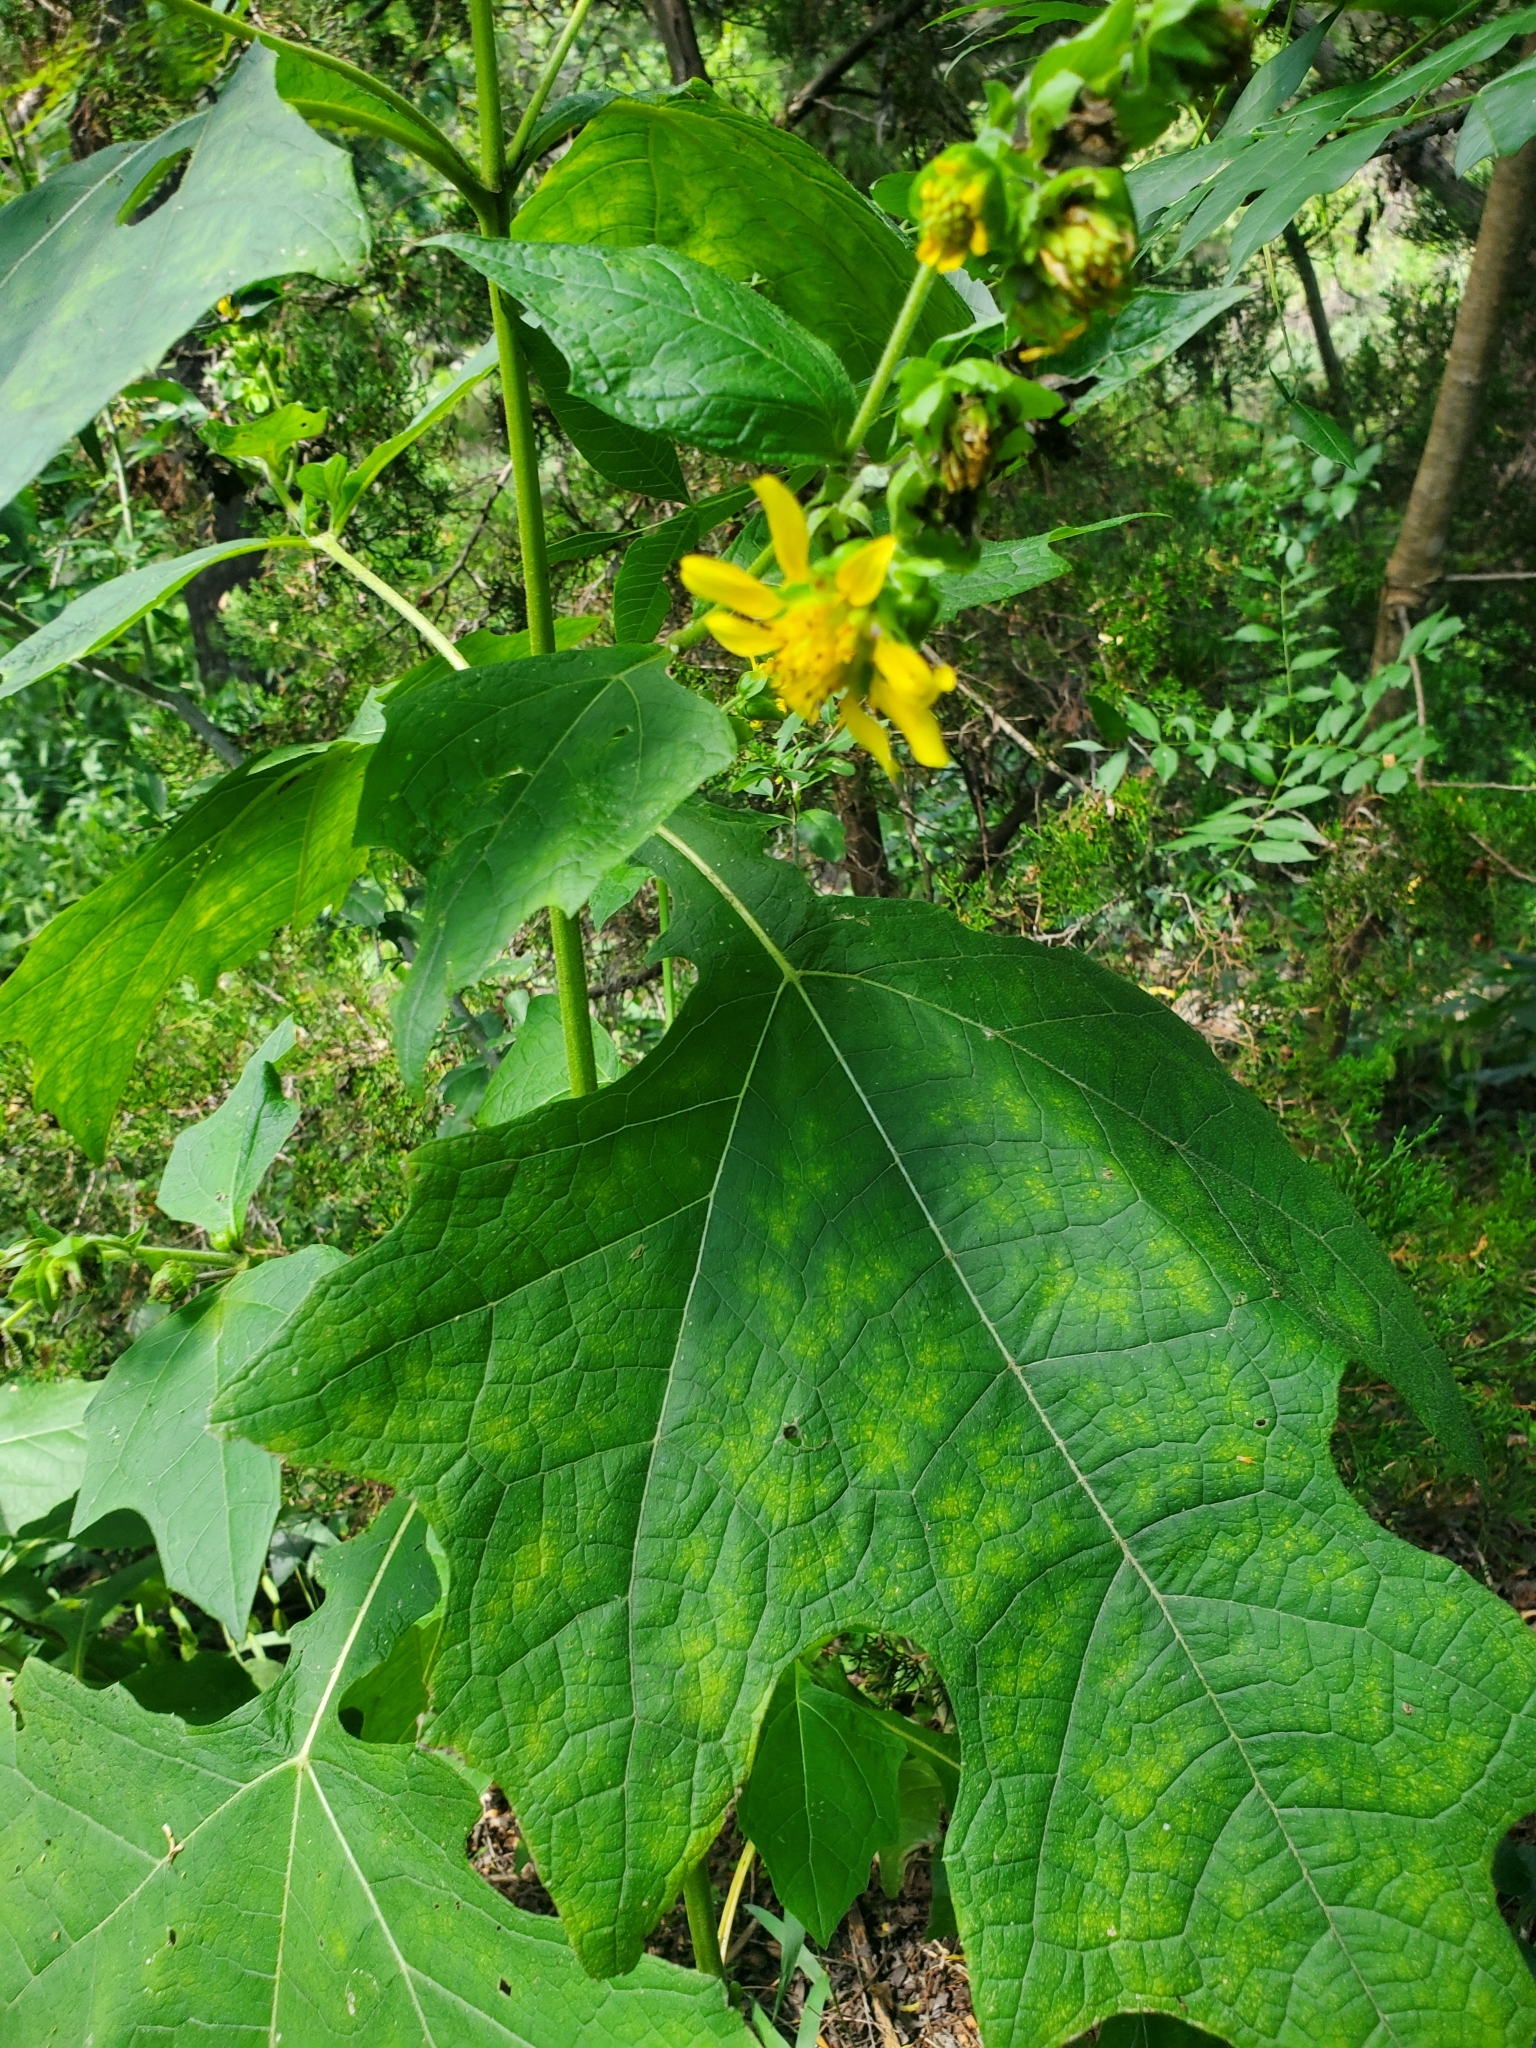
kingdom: Plantae
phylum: Tracheophyta
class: Magnoliopsida
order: Asterales
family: Asteraceae
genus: Smallanthus
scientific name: Smallanthus uvedalia
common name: Bear's-foot
